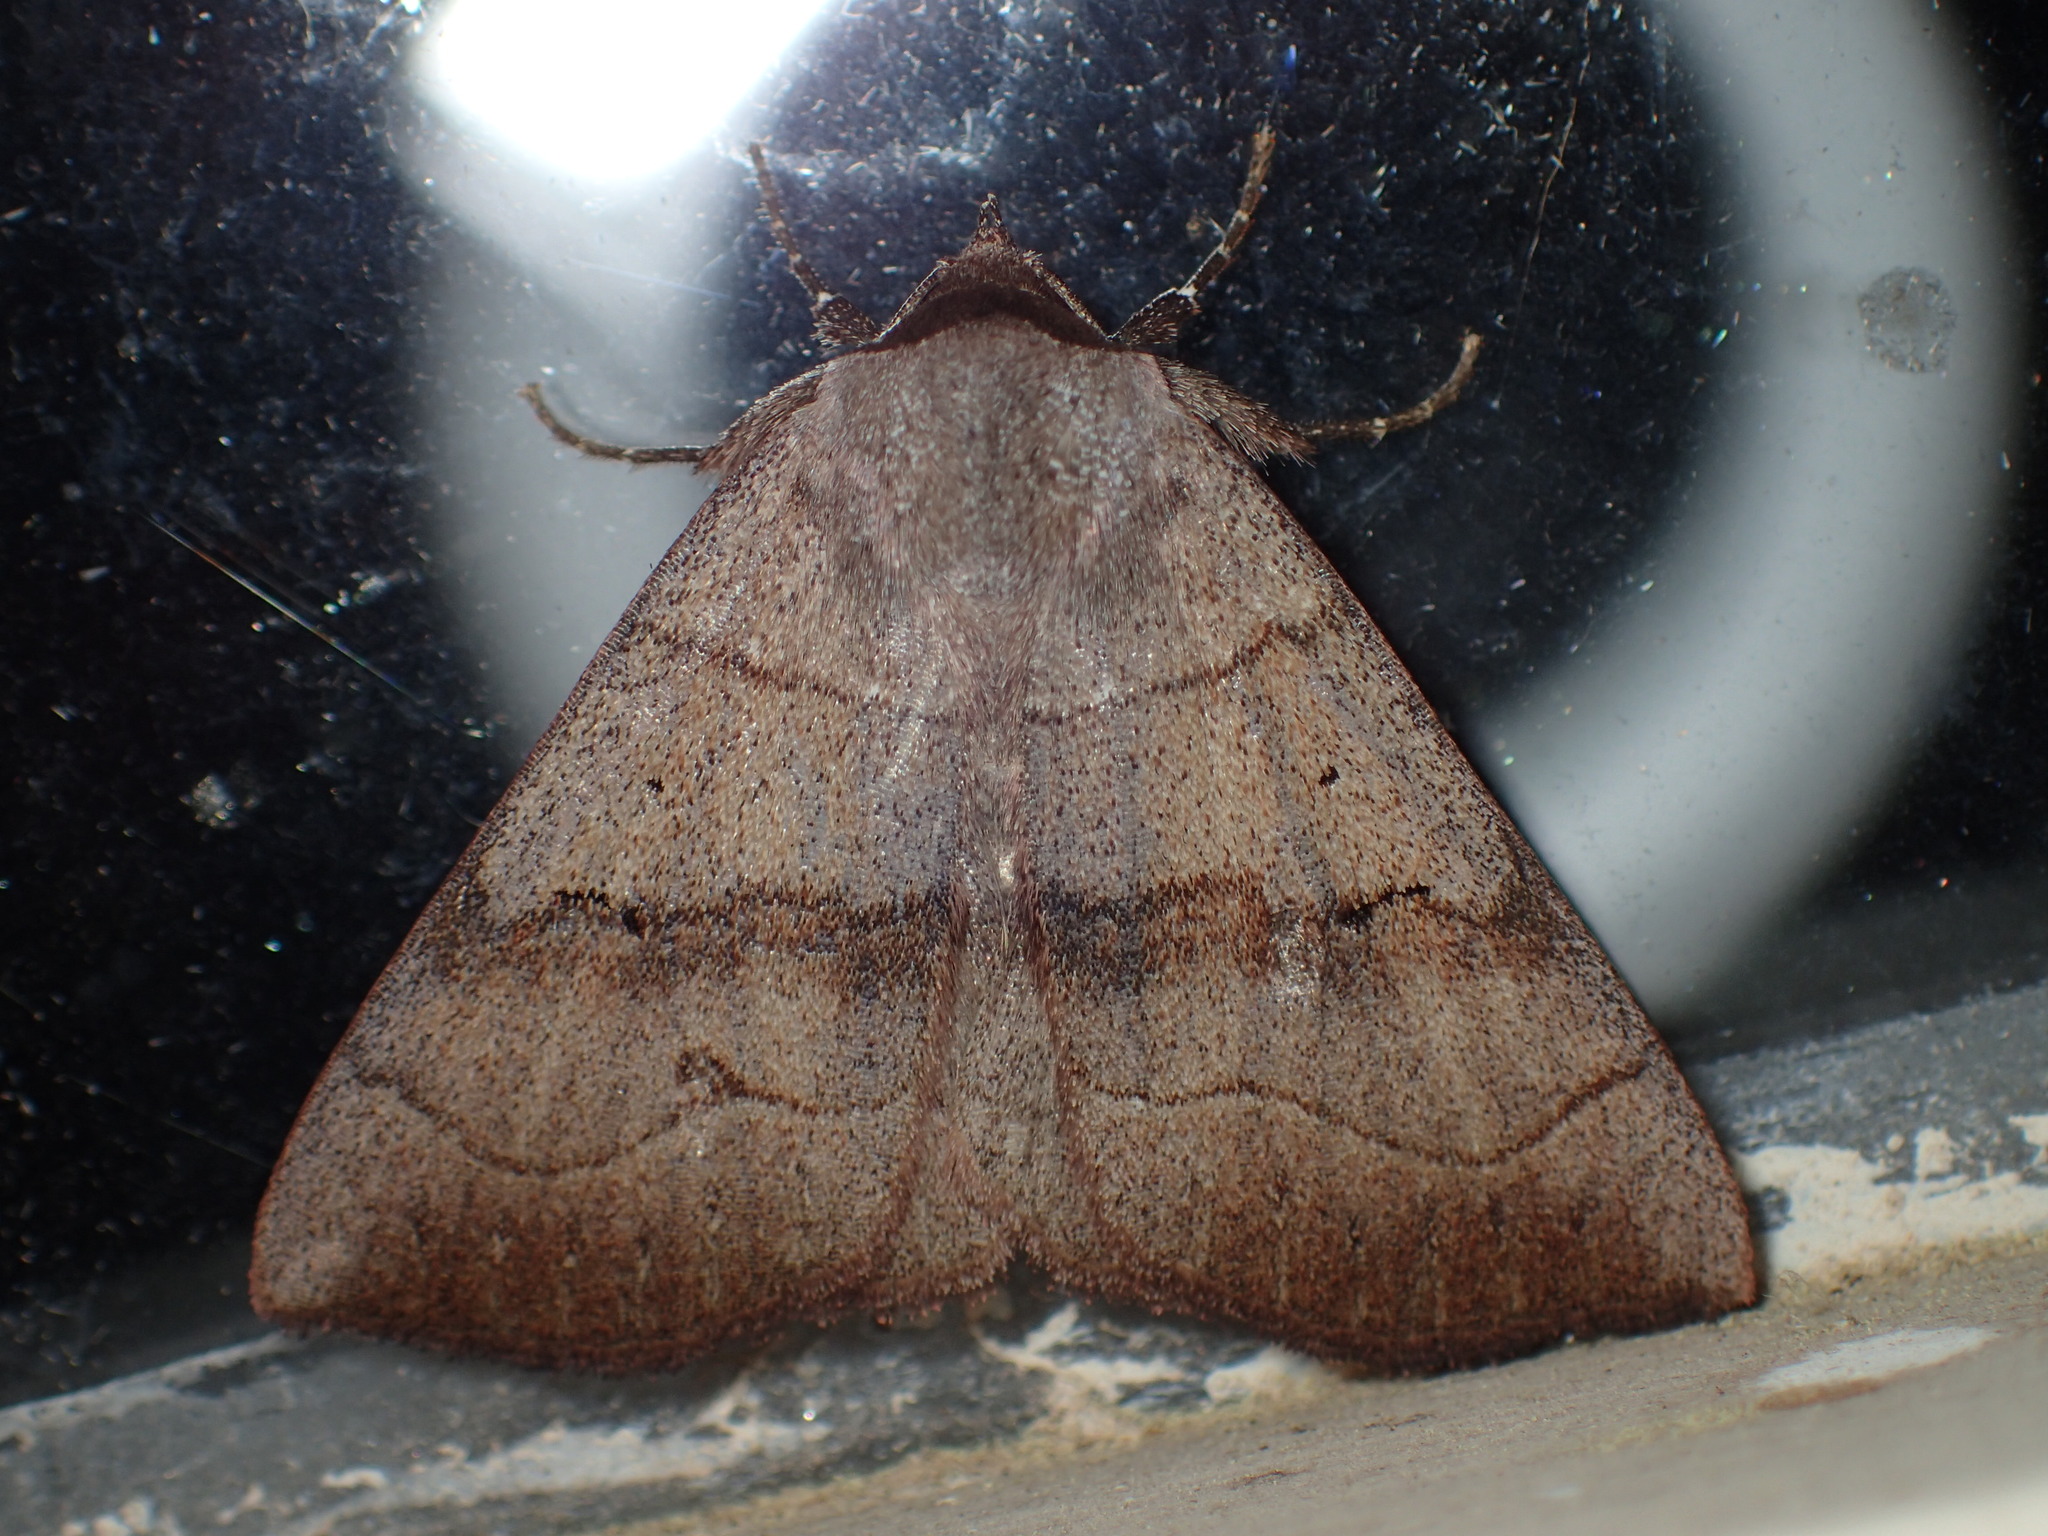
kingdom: Animalia
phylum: Arthropoda
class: Insecta
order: Lepidoptera
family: Erebidae
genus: Panopoda
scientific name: Panopoda carneicosta
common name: Brown panopoda moth
